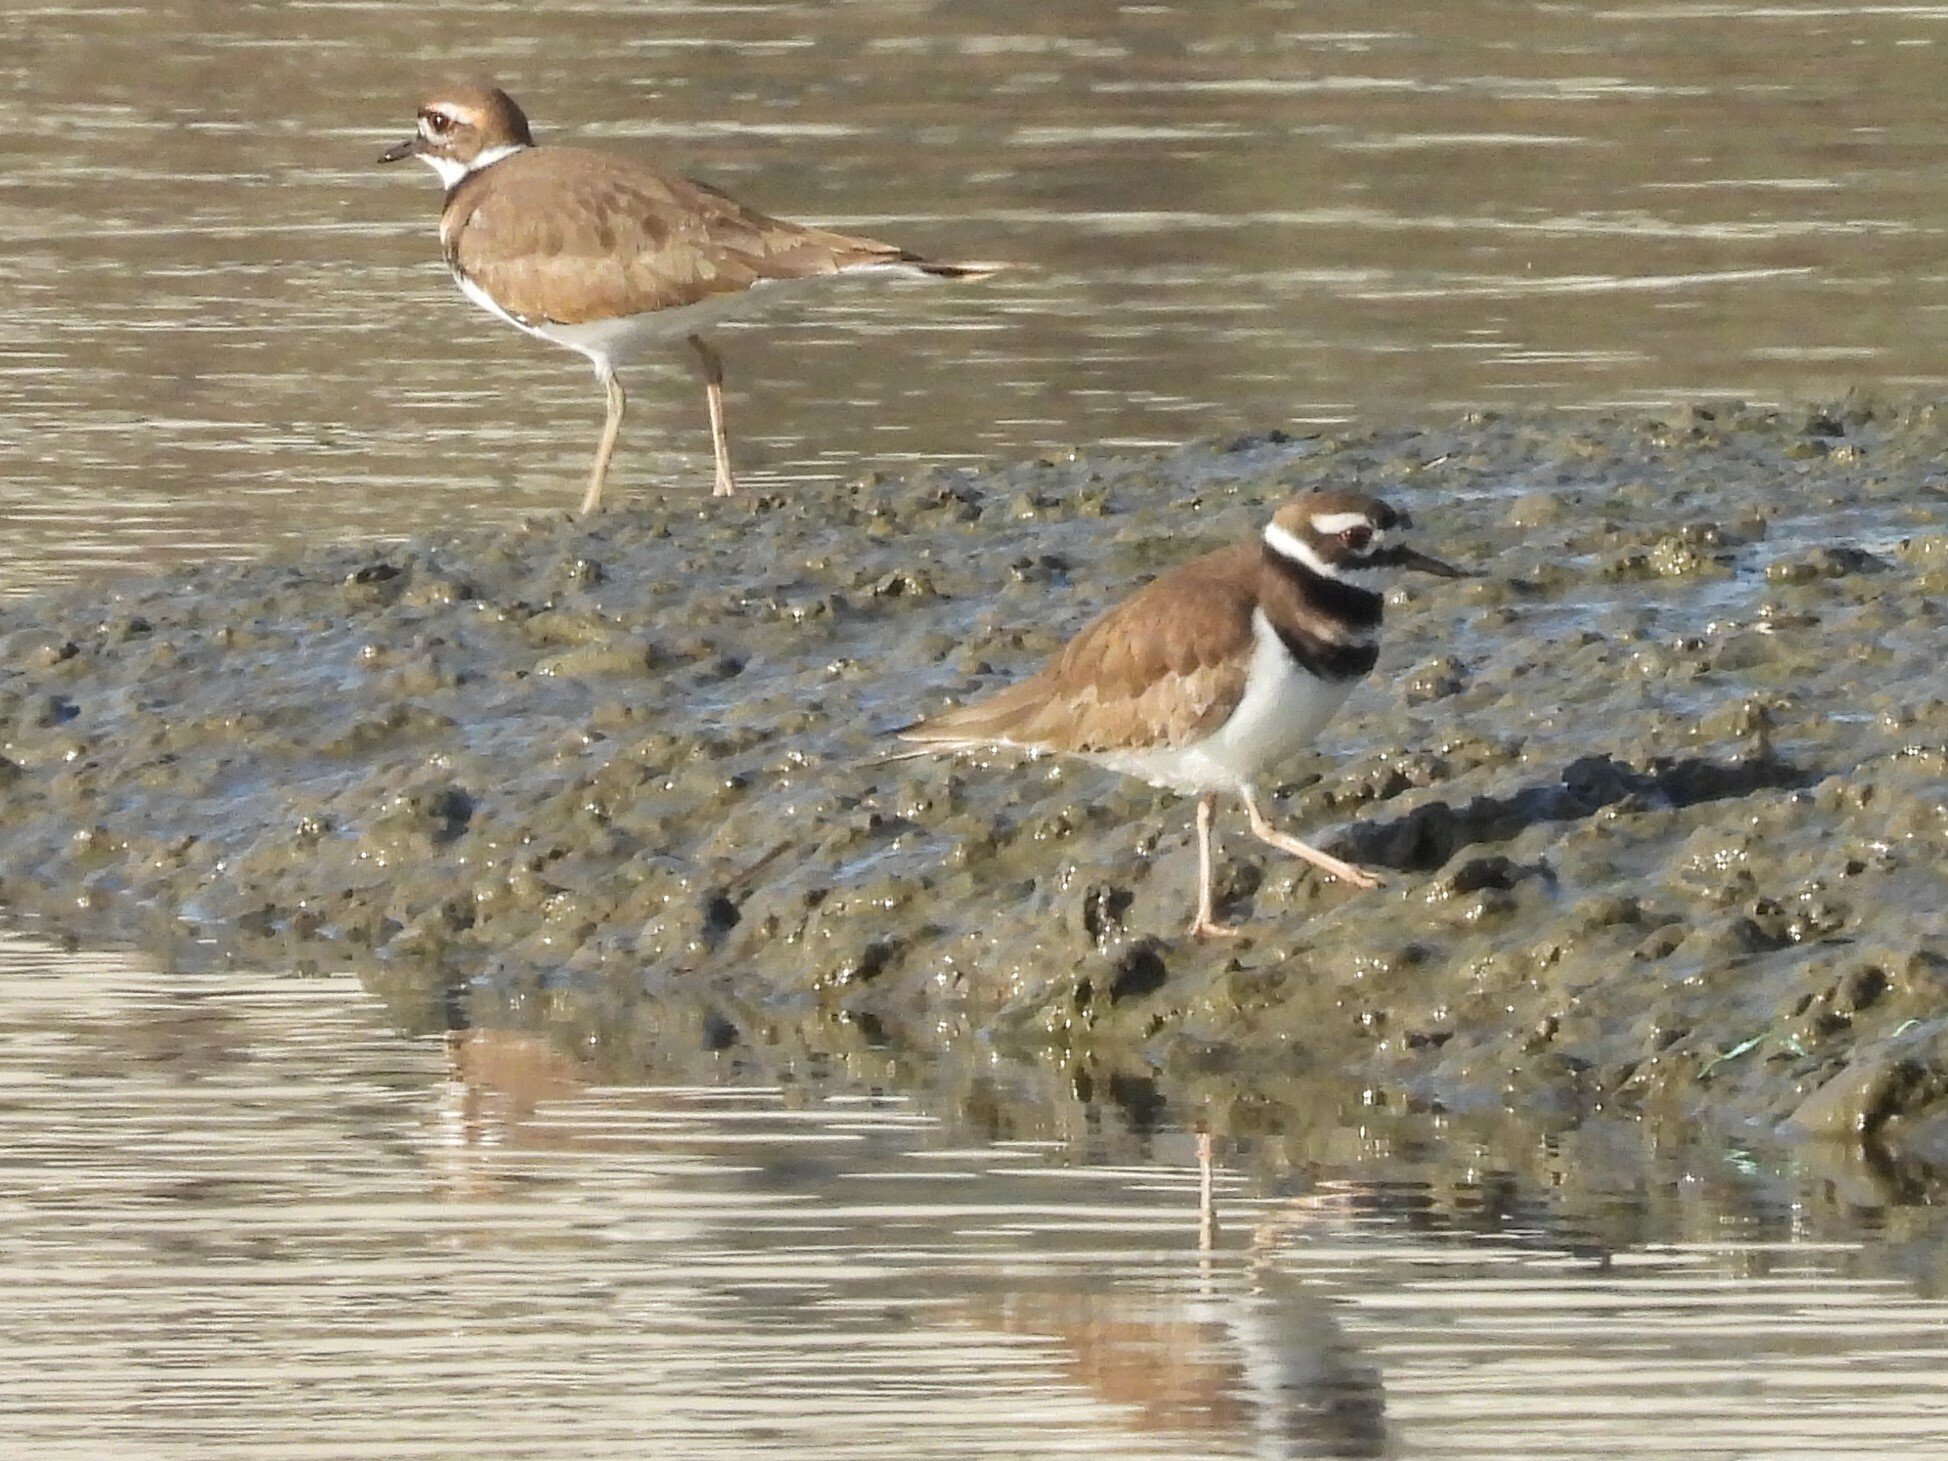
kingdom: Animalia
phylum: Chordata
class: Aves
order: Charadriiformes
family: Charadriidae
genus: Charadrius
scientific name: Charadrius vociferus
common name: Killdeer
